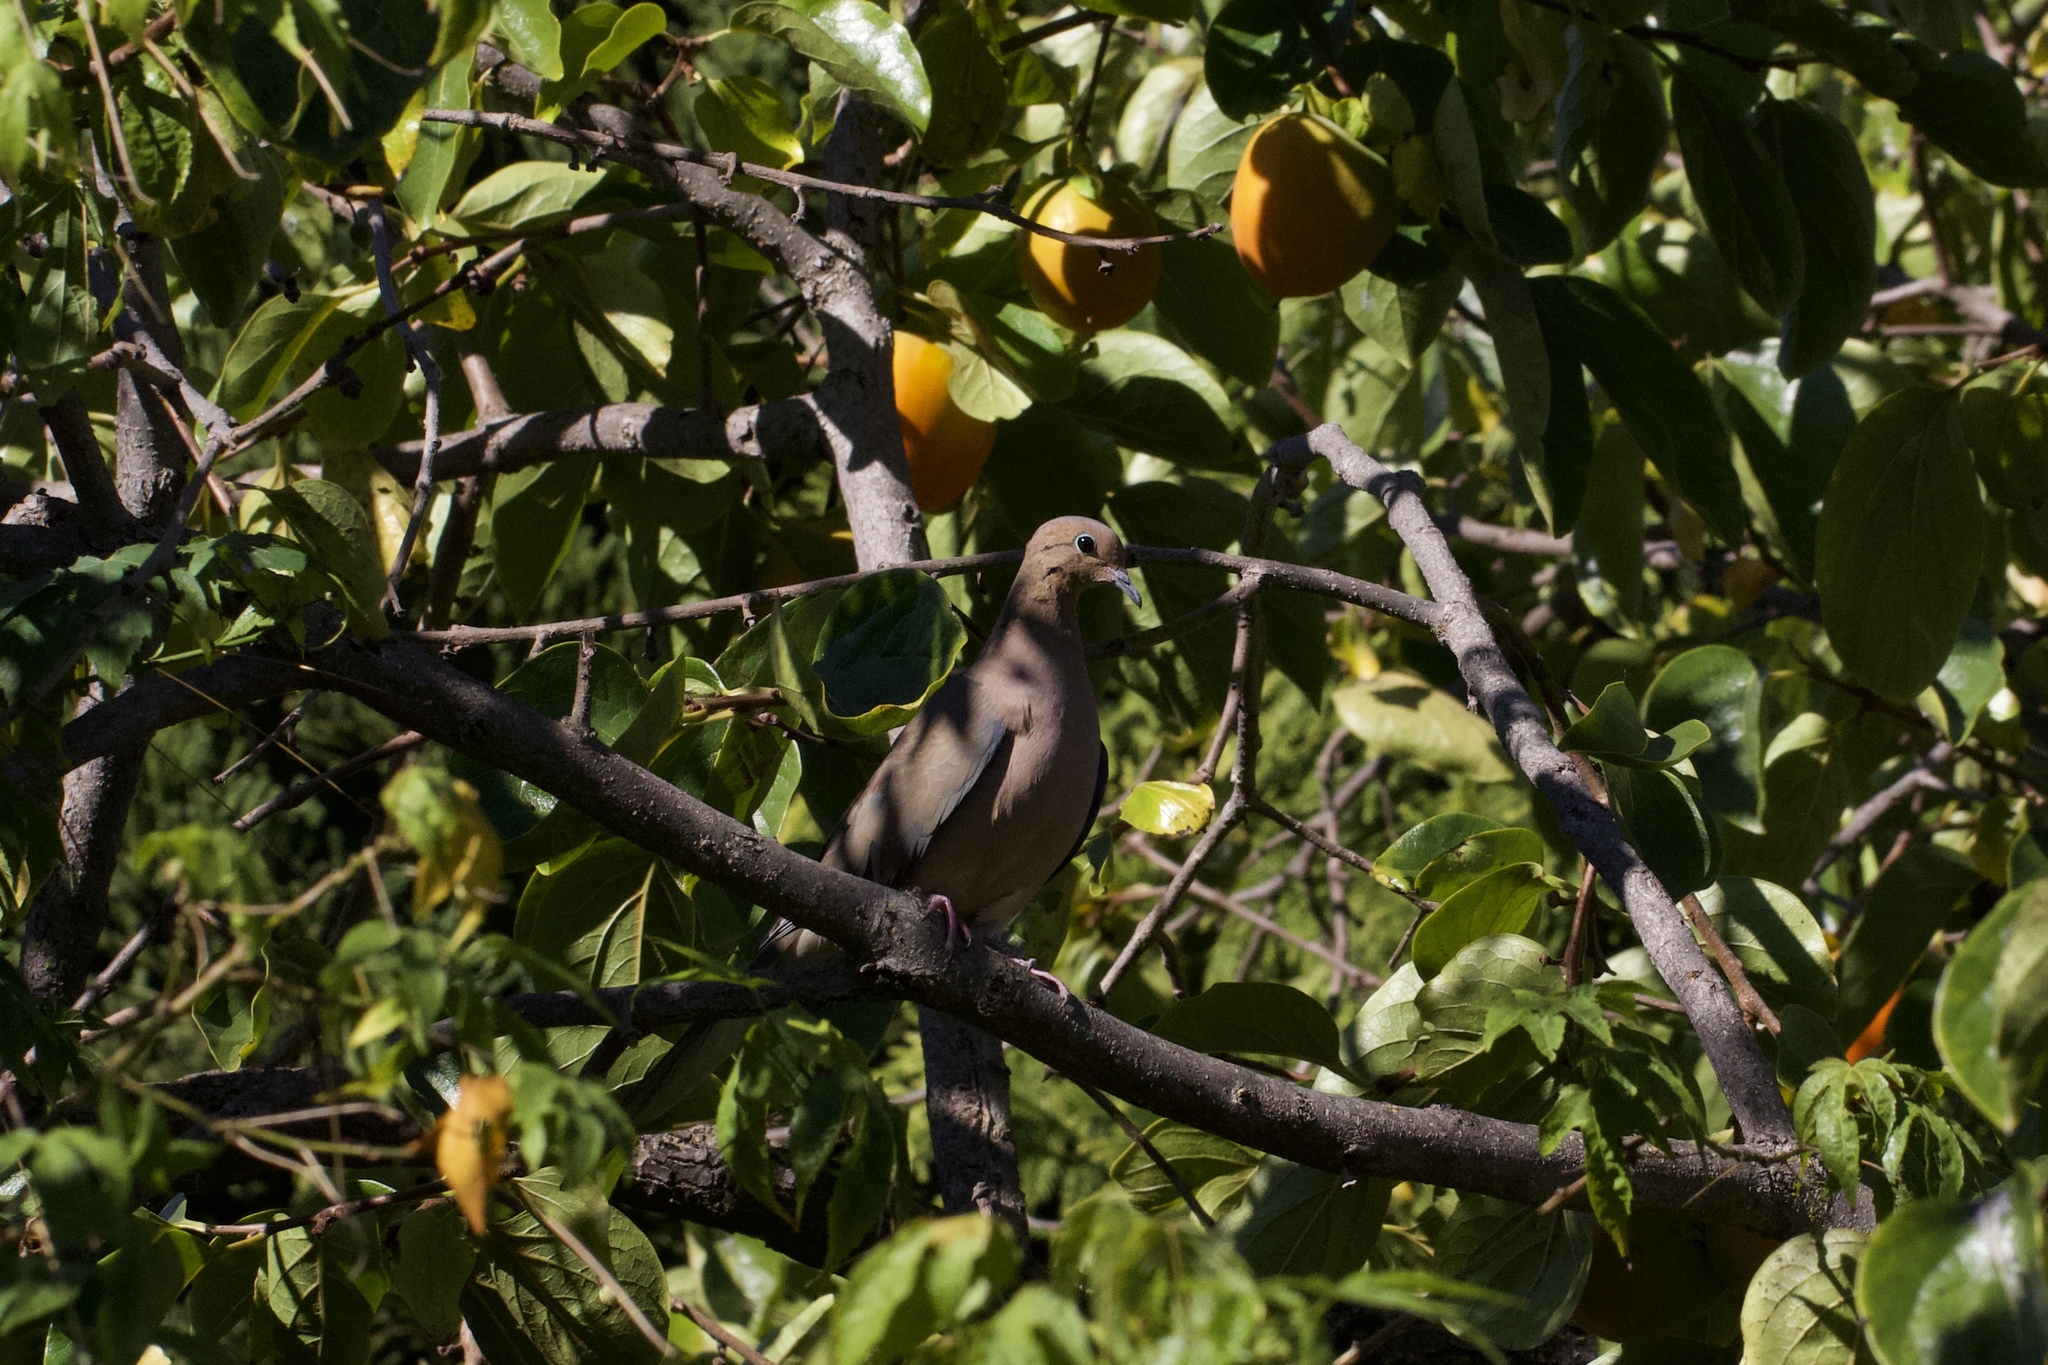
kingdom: Animalia
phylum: Chordata
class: Aves
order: Columbiformes
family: Columbidae
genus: Zenaida
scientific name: Zenaida macroura
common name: Mourning dove
